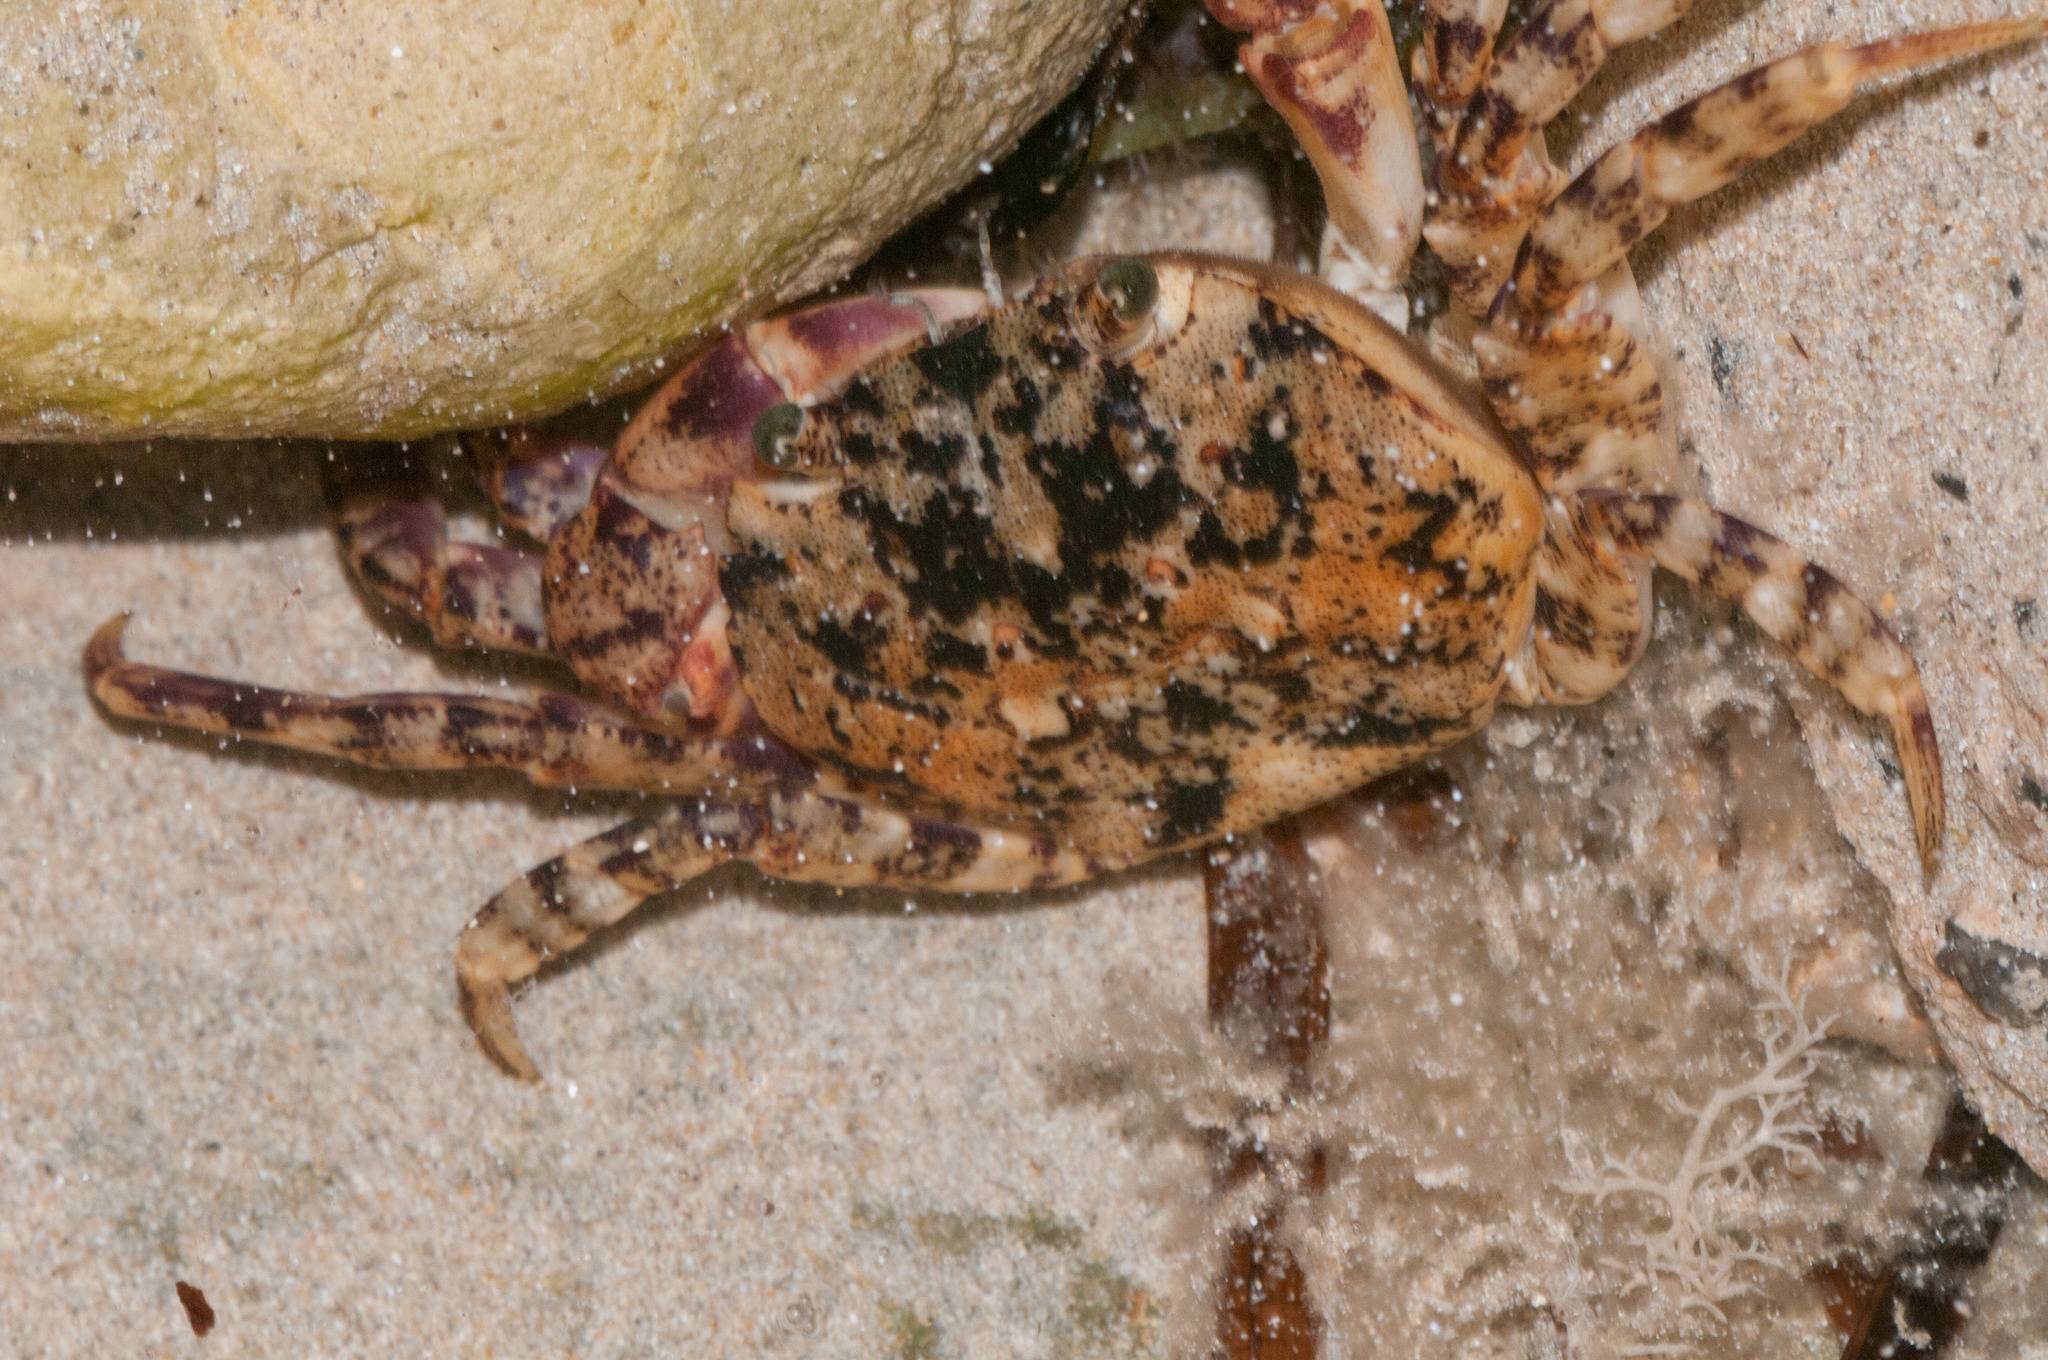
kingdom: Animalia
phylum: Arthropoda
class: Malacostraca
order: Decapoda
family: Leptograpsodidae
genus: Leptograpsodes
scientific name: Leptograpsodes octodentatus
